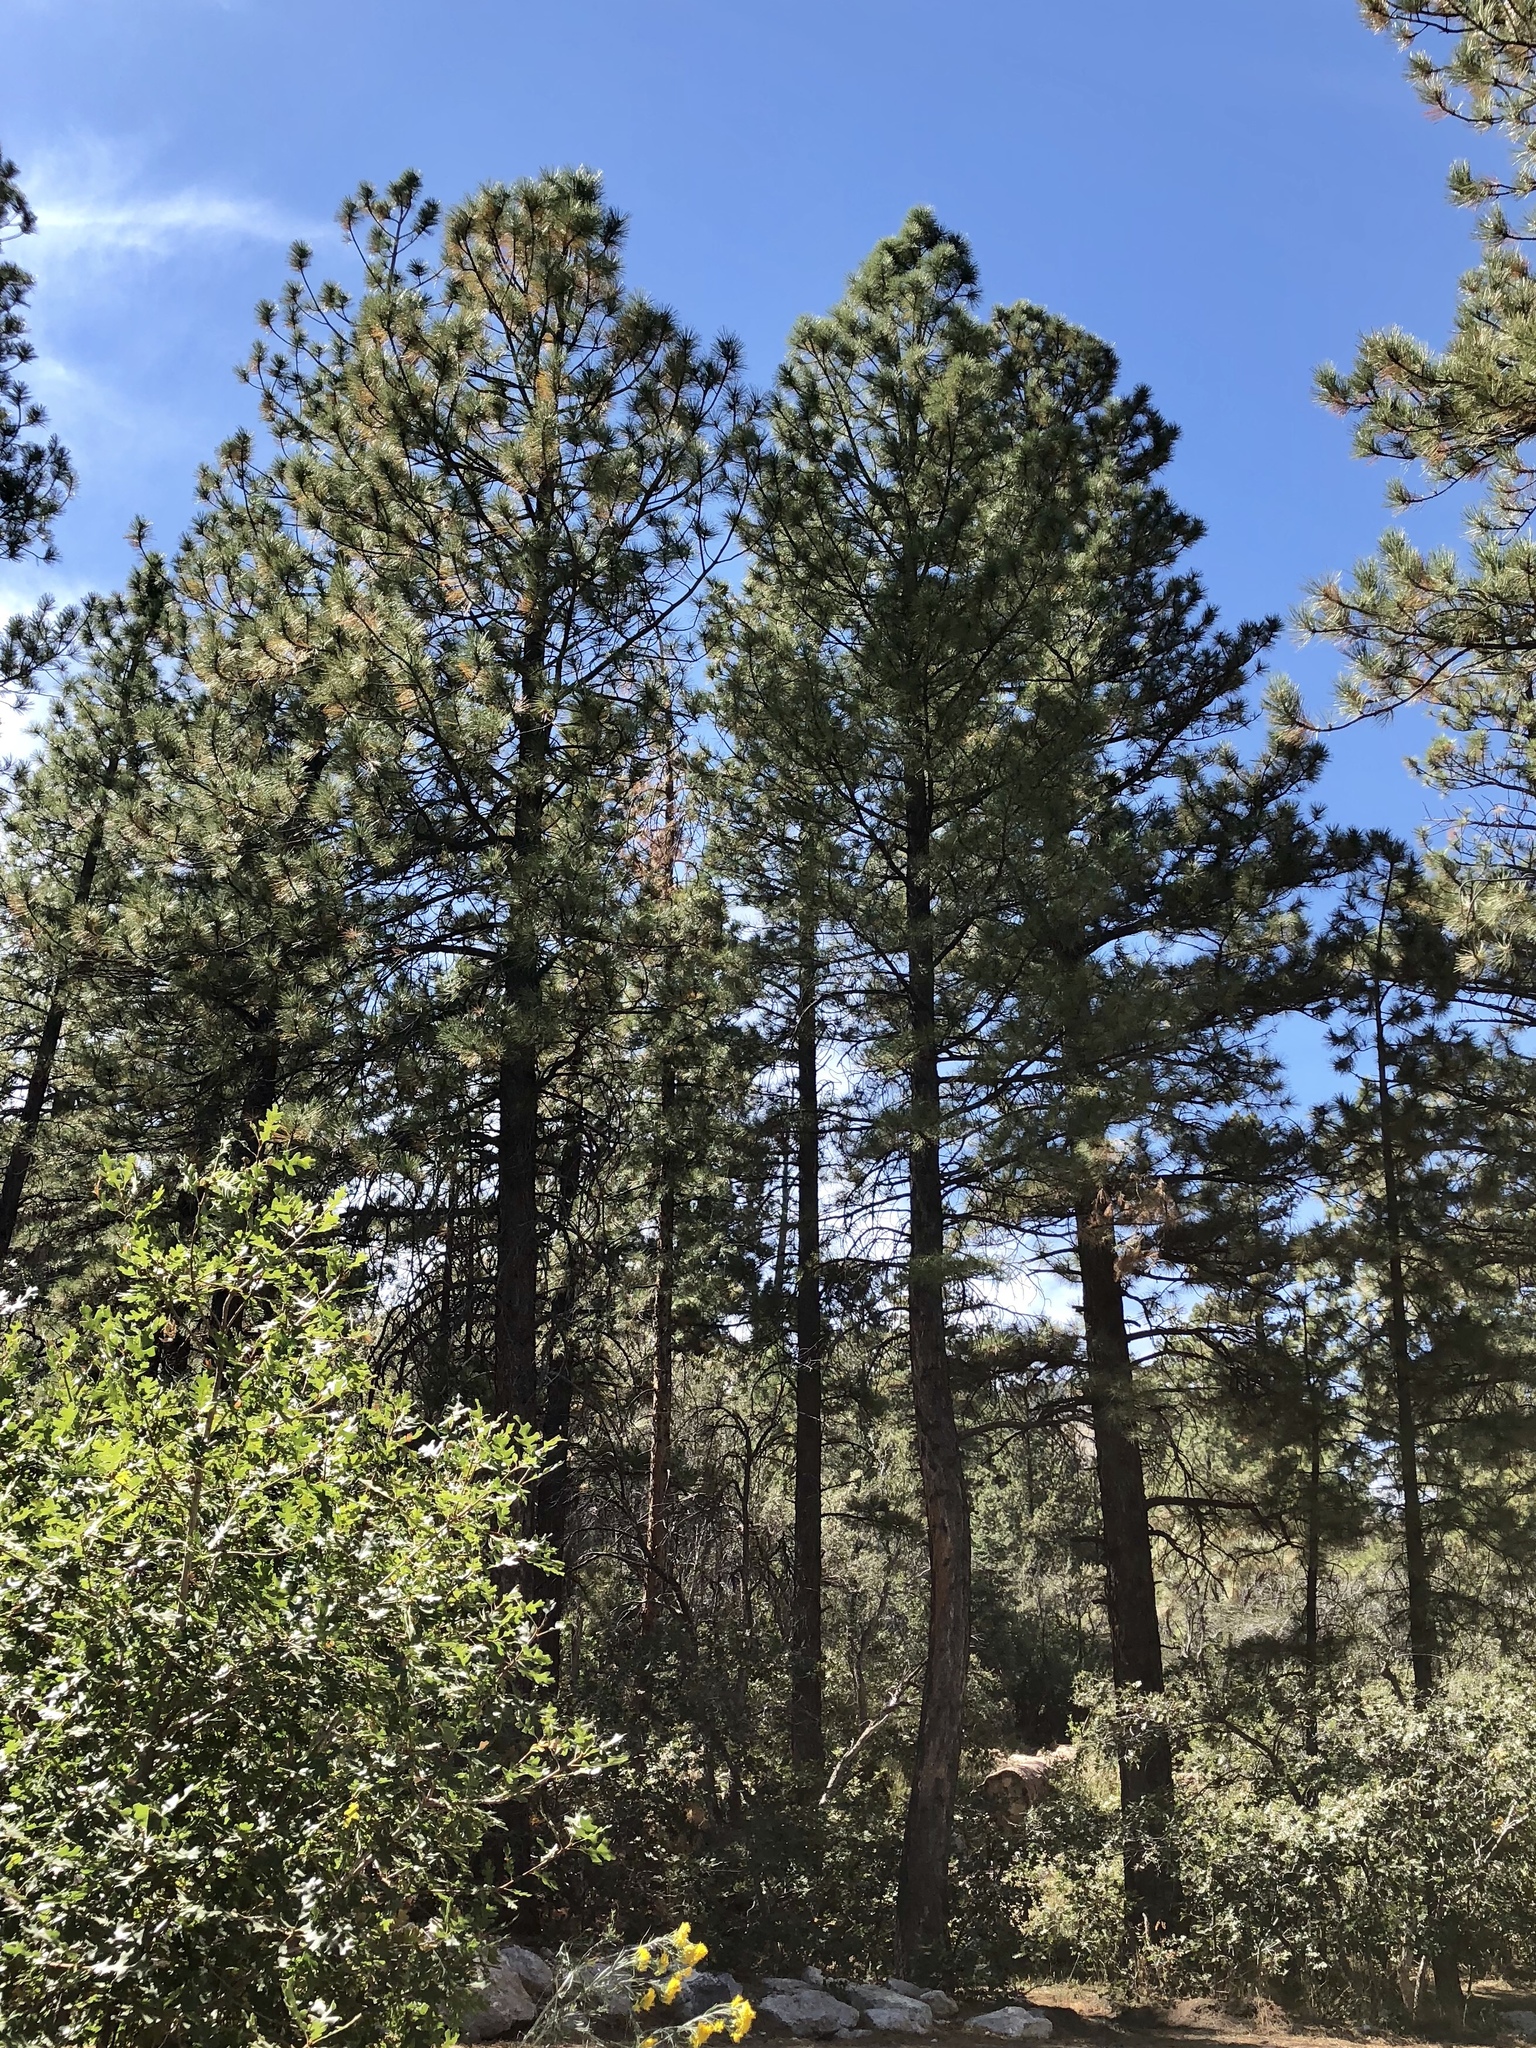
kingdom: Plantae
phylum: Tracheophyta
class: Pinopsida
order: Pinales
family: Pinaceae
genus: Pinus
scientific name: Pinus ponderosa
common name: Western yellow-pine
